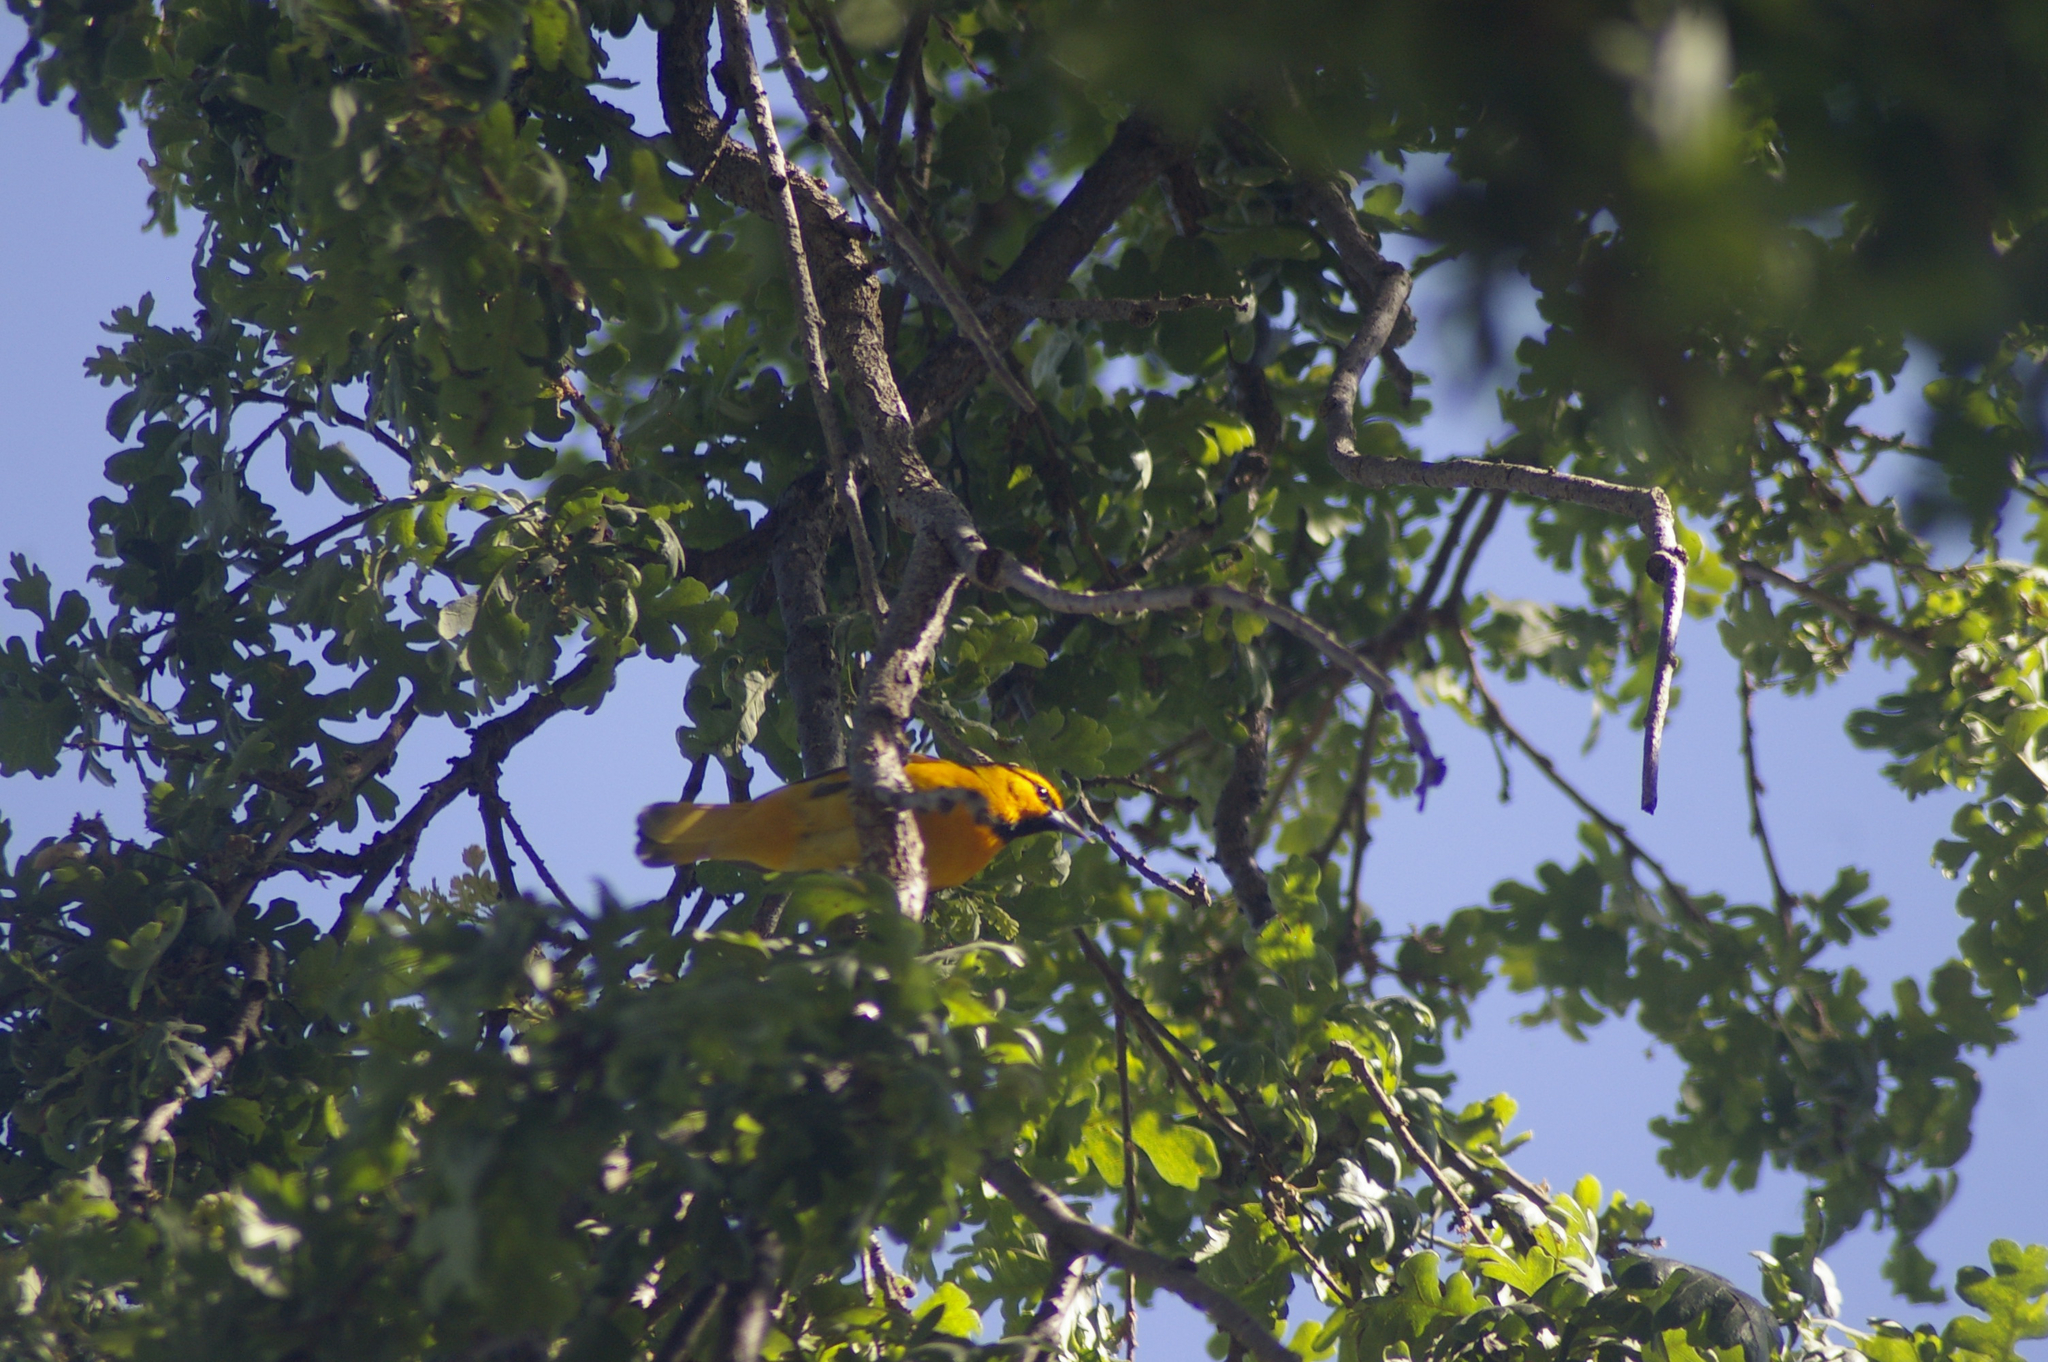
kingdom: Animalia
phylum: Chordata
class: Aves
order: Passeriformes
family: Icteridae
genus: Icterus
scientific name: Icterus bullockii
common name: Bullock's oriole
